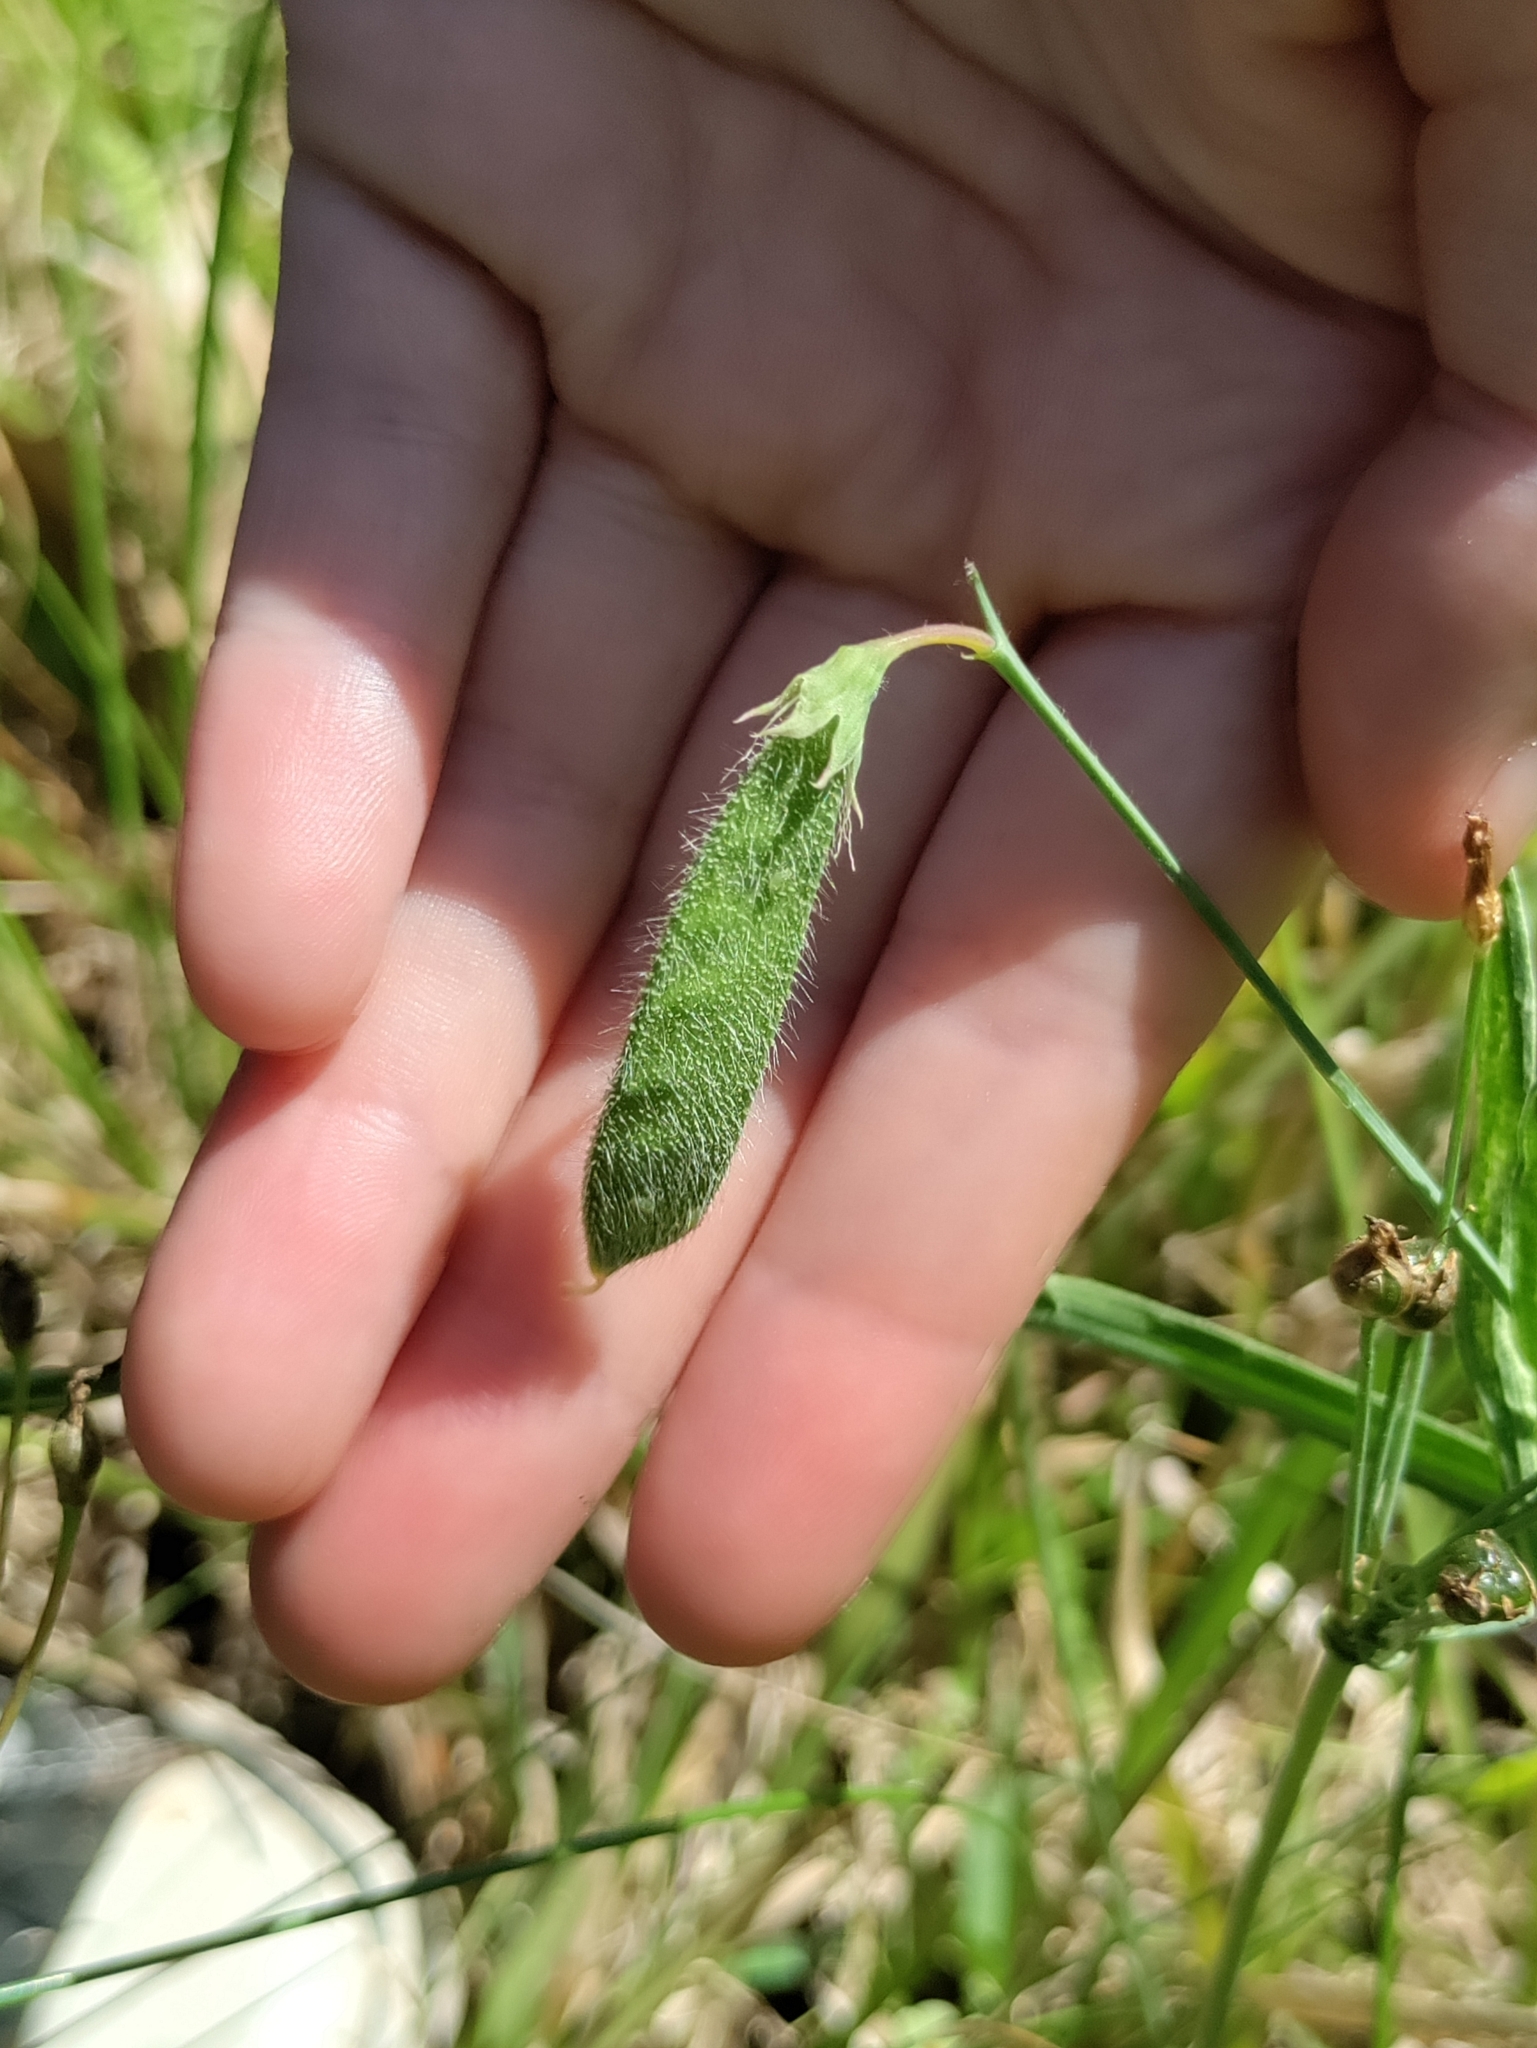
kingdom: Plantae
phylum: Tracheophyta
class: Magnoliopsida
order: Fabales
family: Fabaceae
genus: Lathyrus
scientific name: Lathyrus hirsutus
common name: Hairy vetchling
